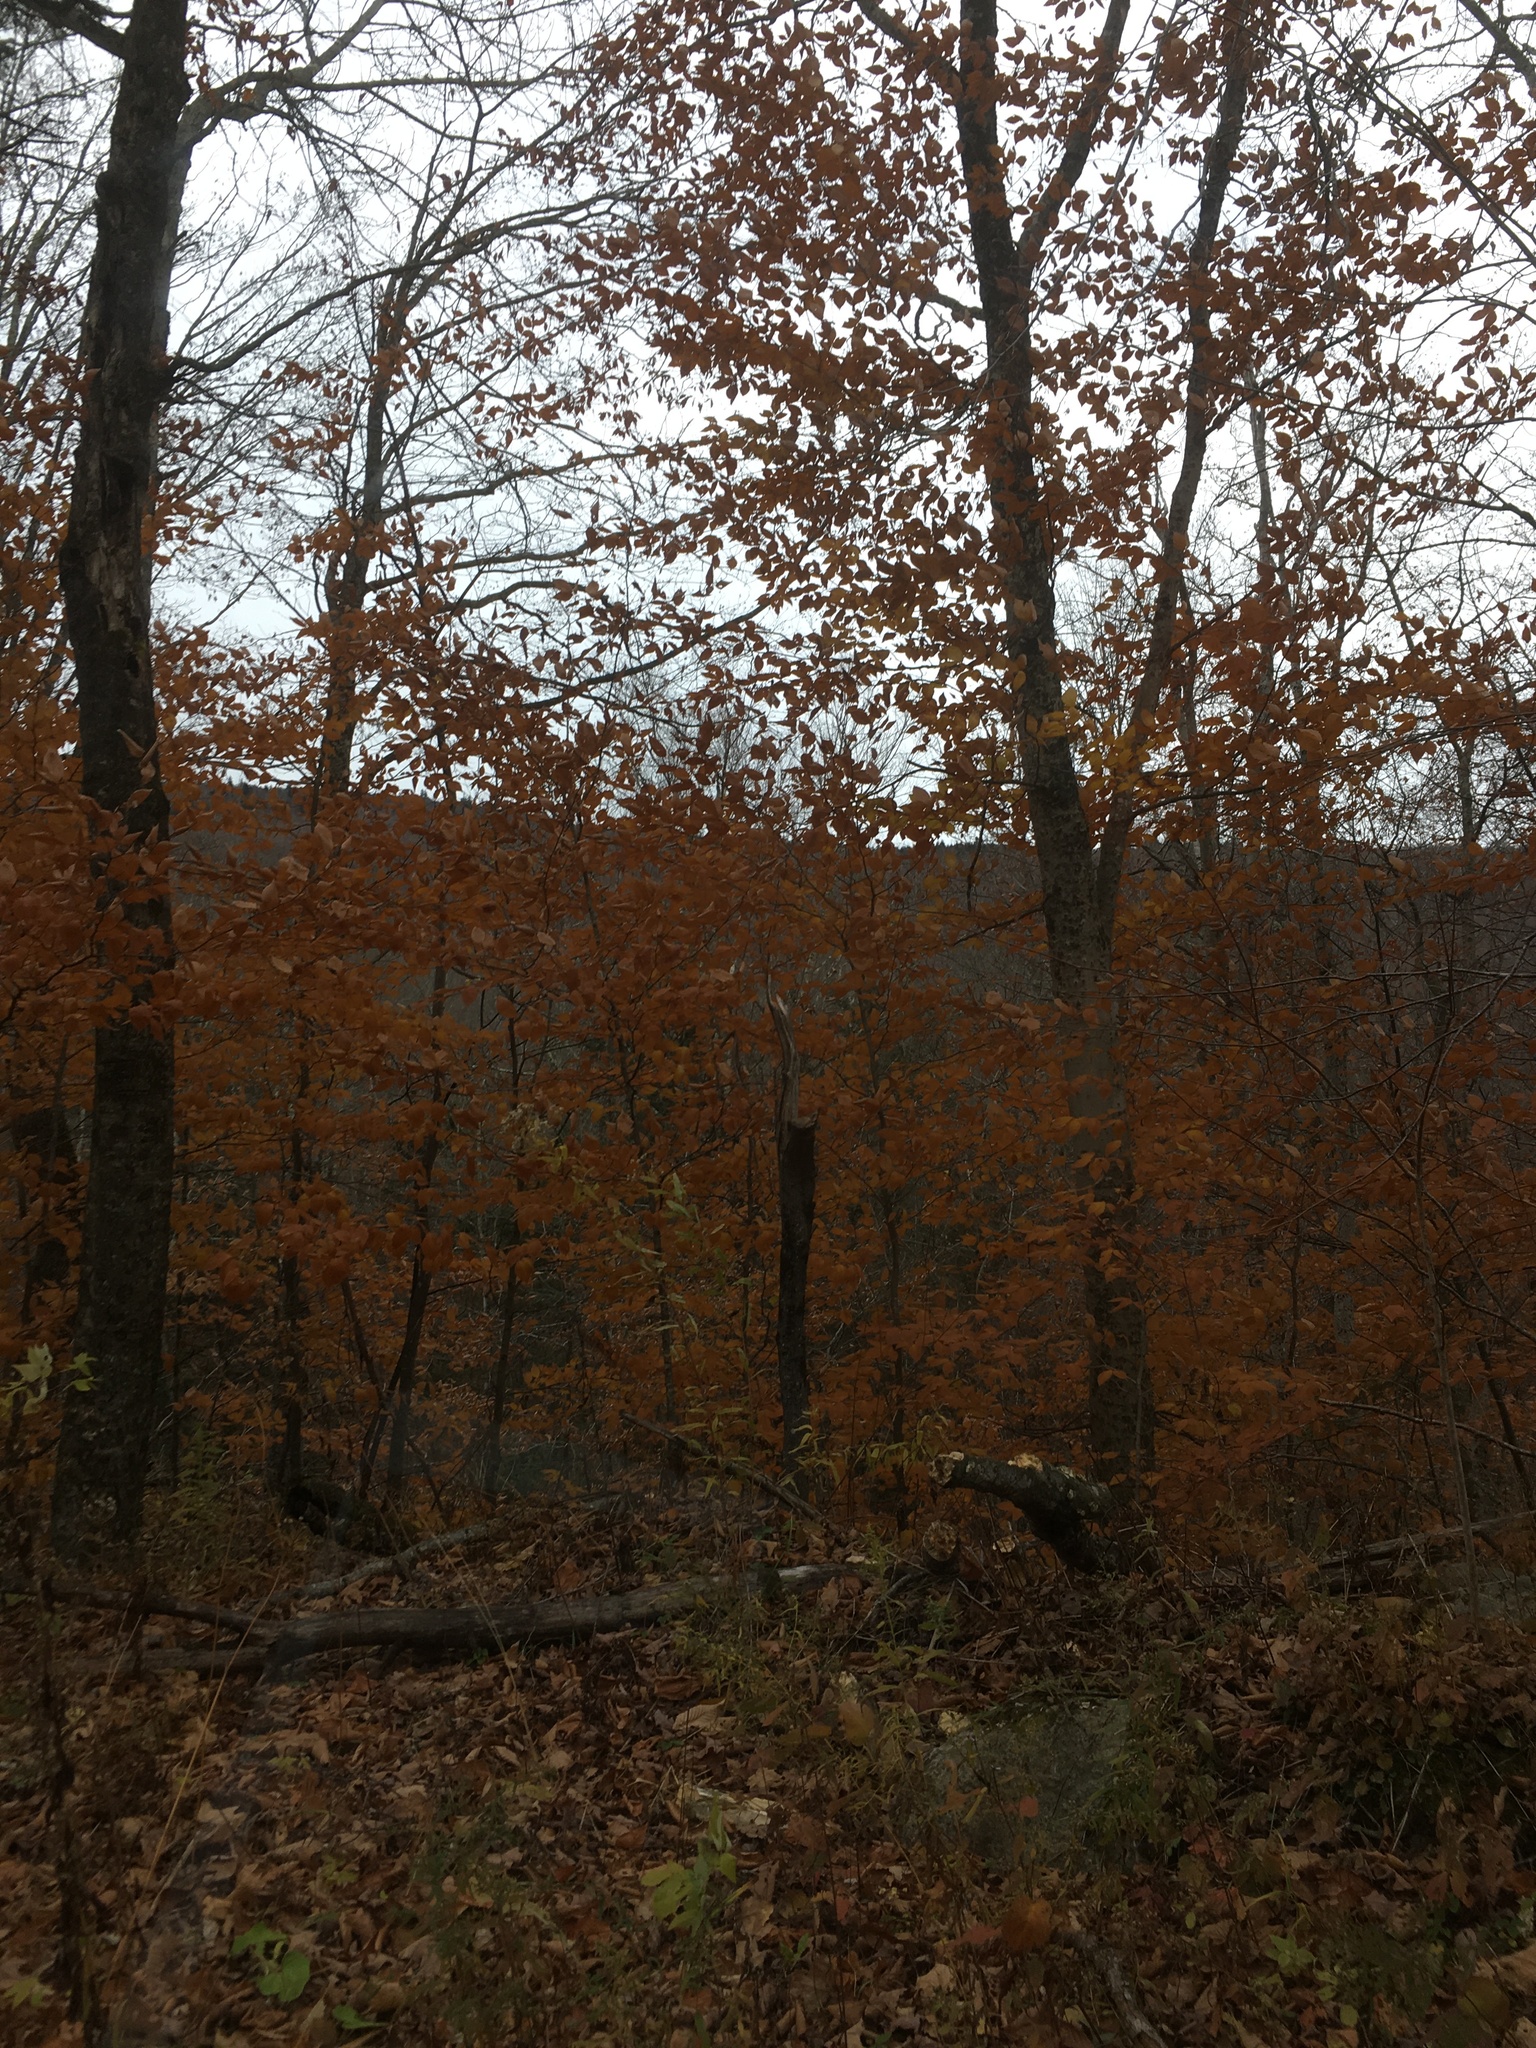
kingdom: Plantae
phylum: Tracheophyta
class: Magnoliopsida
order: Fagales
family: Fagaceae
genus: Fagus
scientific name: Fagus grandifolia
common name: American beech
